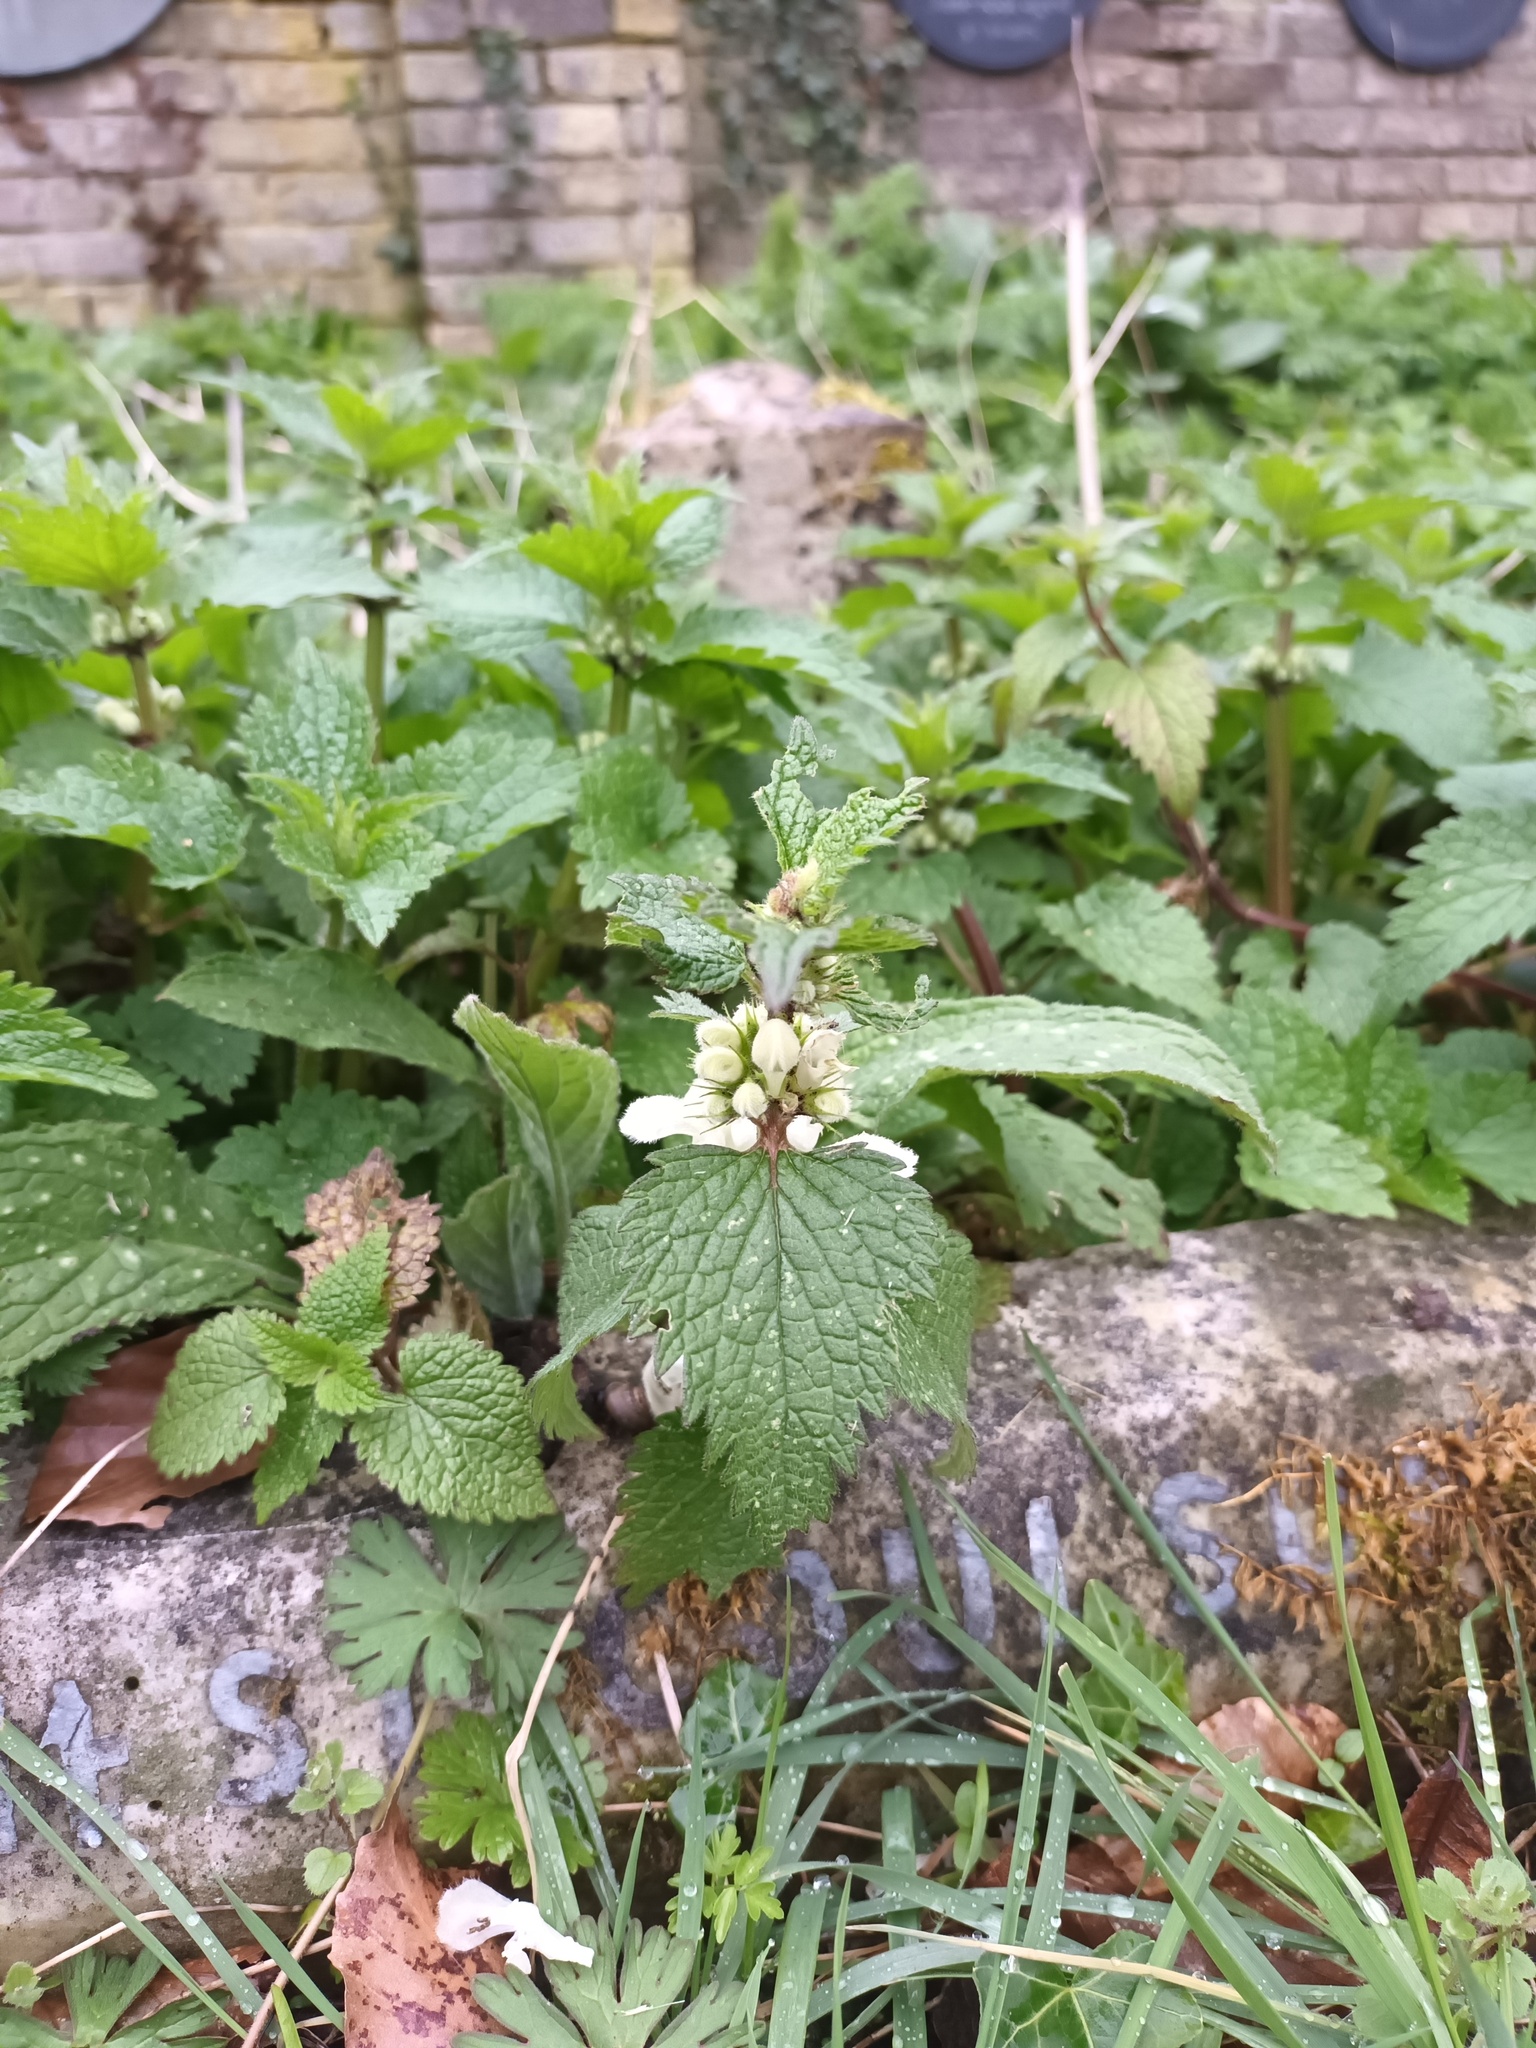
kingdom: Plantae
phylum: Tracheophyta
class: Magnoliopsida
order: Lamiales
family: Lamiaceae
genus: Lamium
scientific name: Lamium album
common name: White dead-nettle
